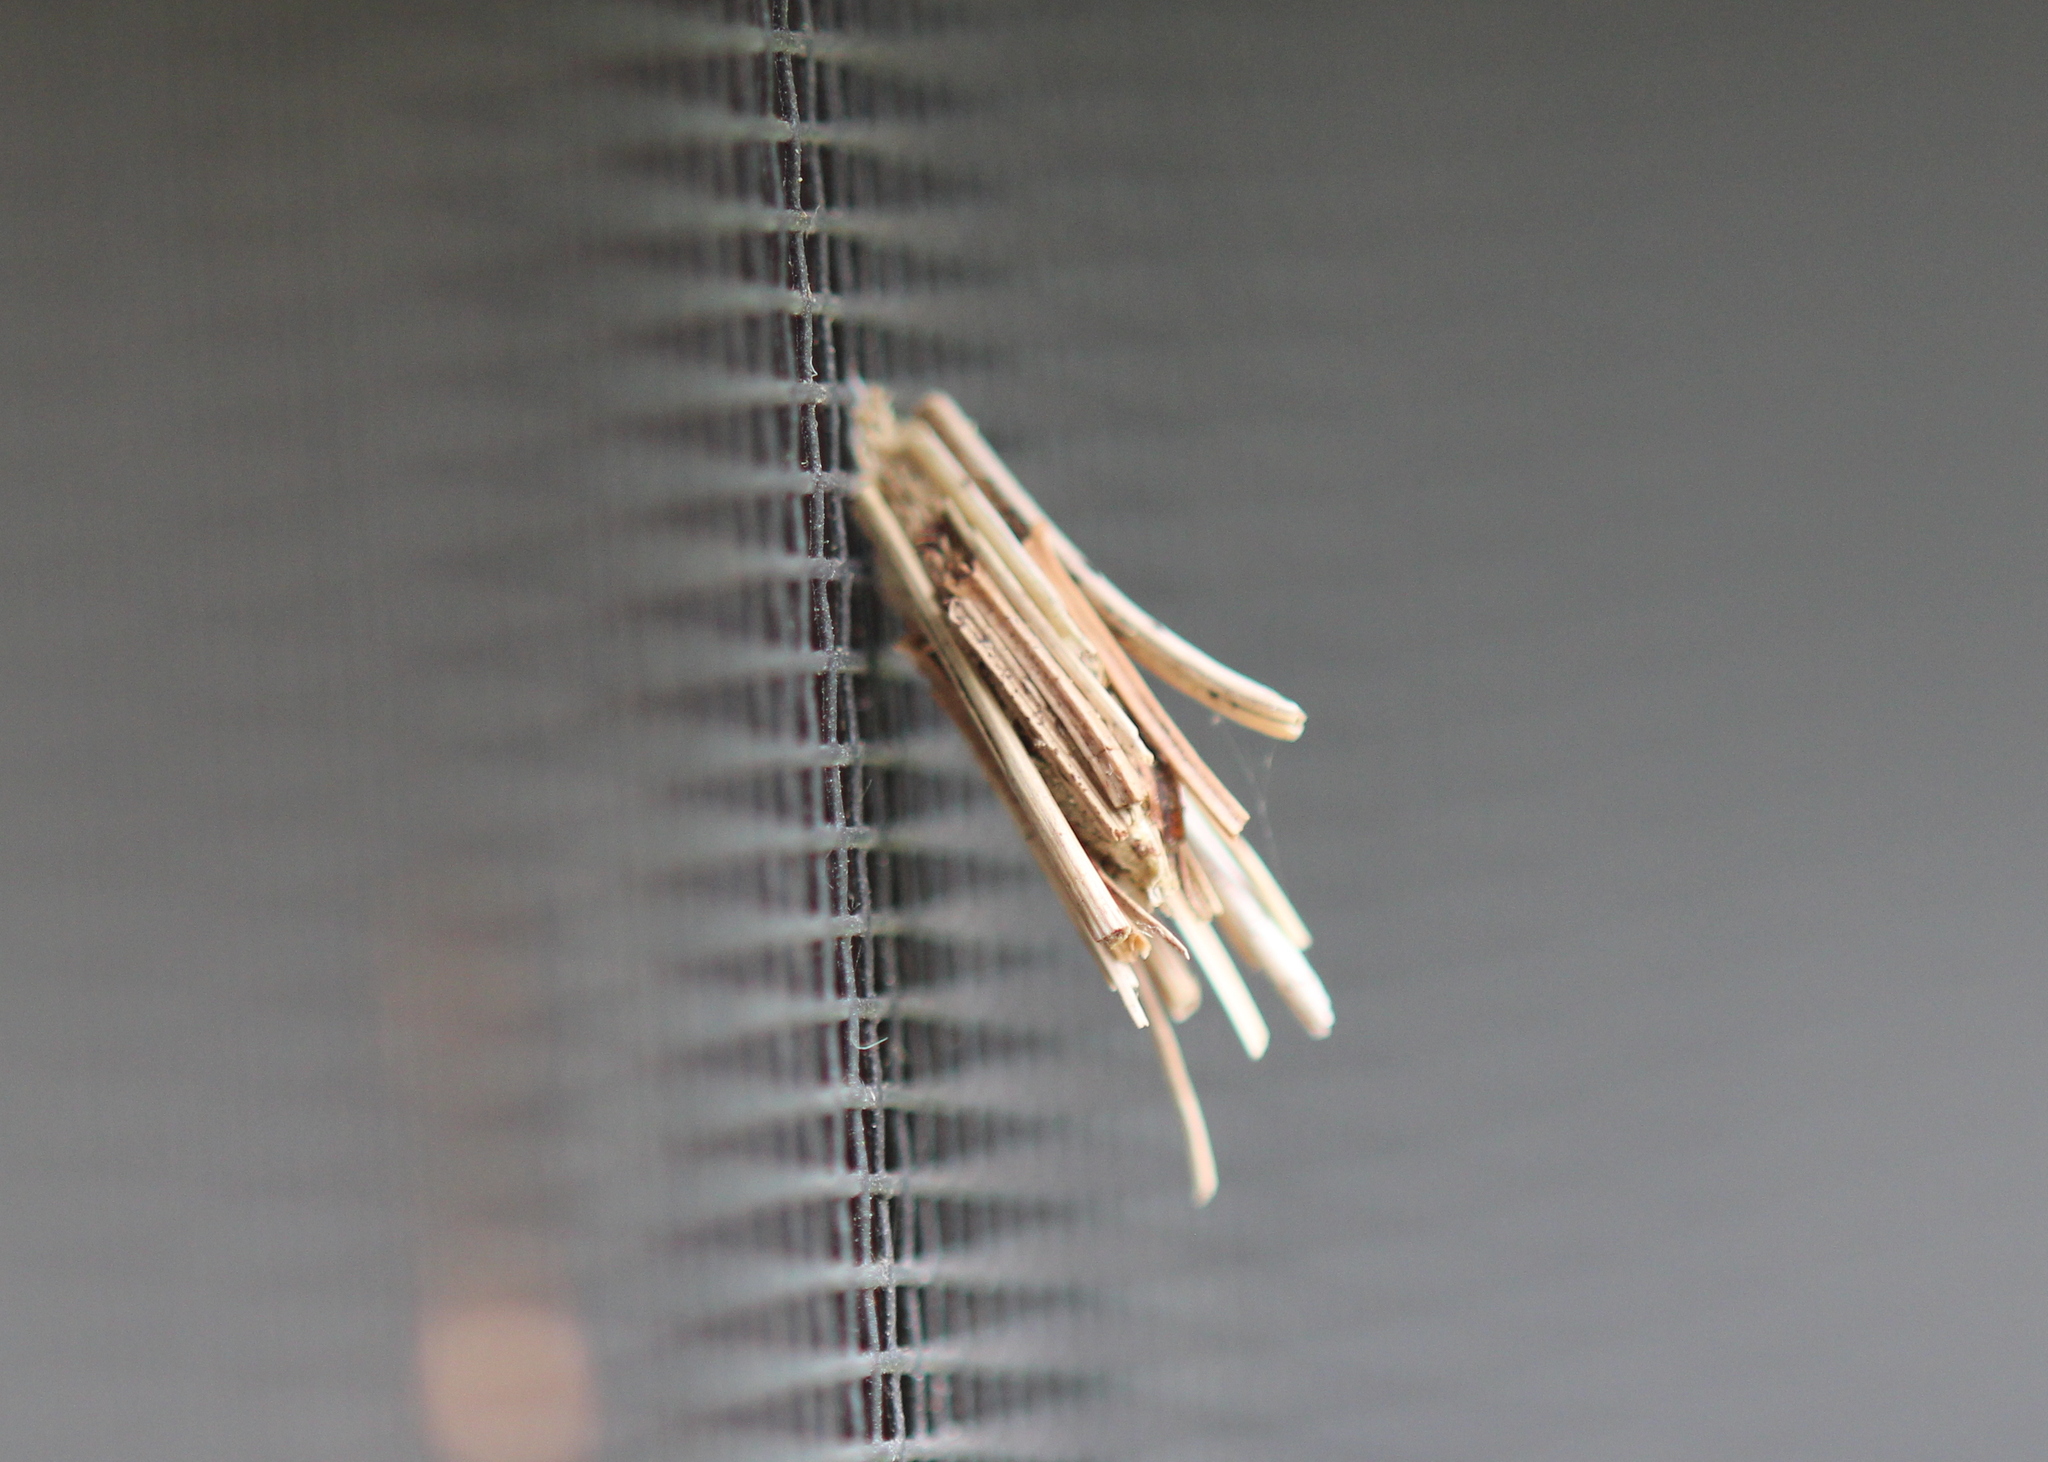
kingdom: Animalia
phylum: Arthropoda
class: Insecta
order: Lepidoptera
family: Psychidae
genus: Psyche
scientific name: Psyche casta
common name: Common sweep
